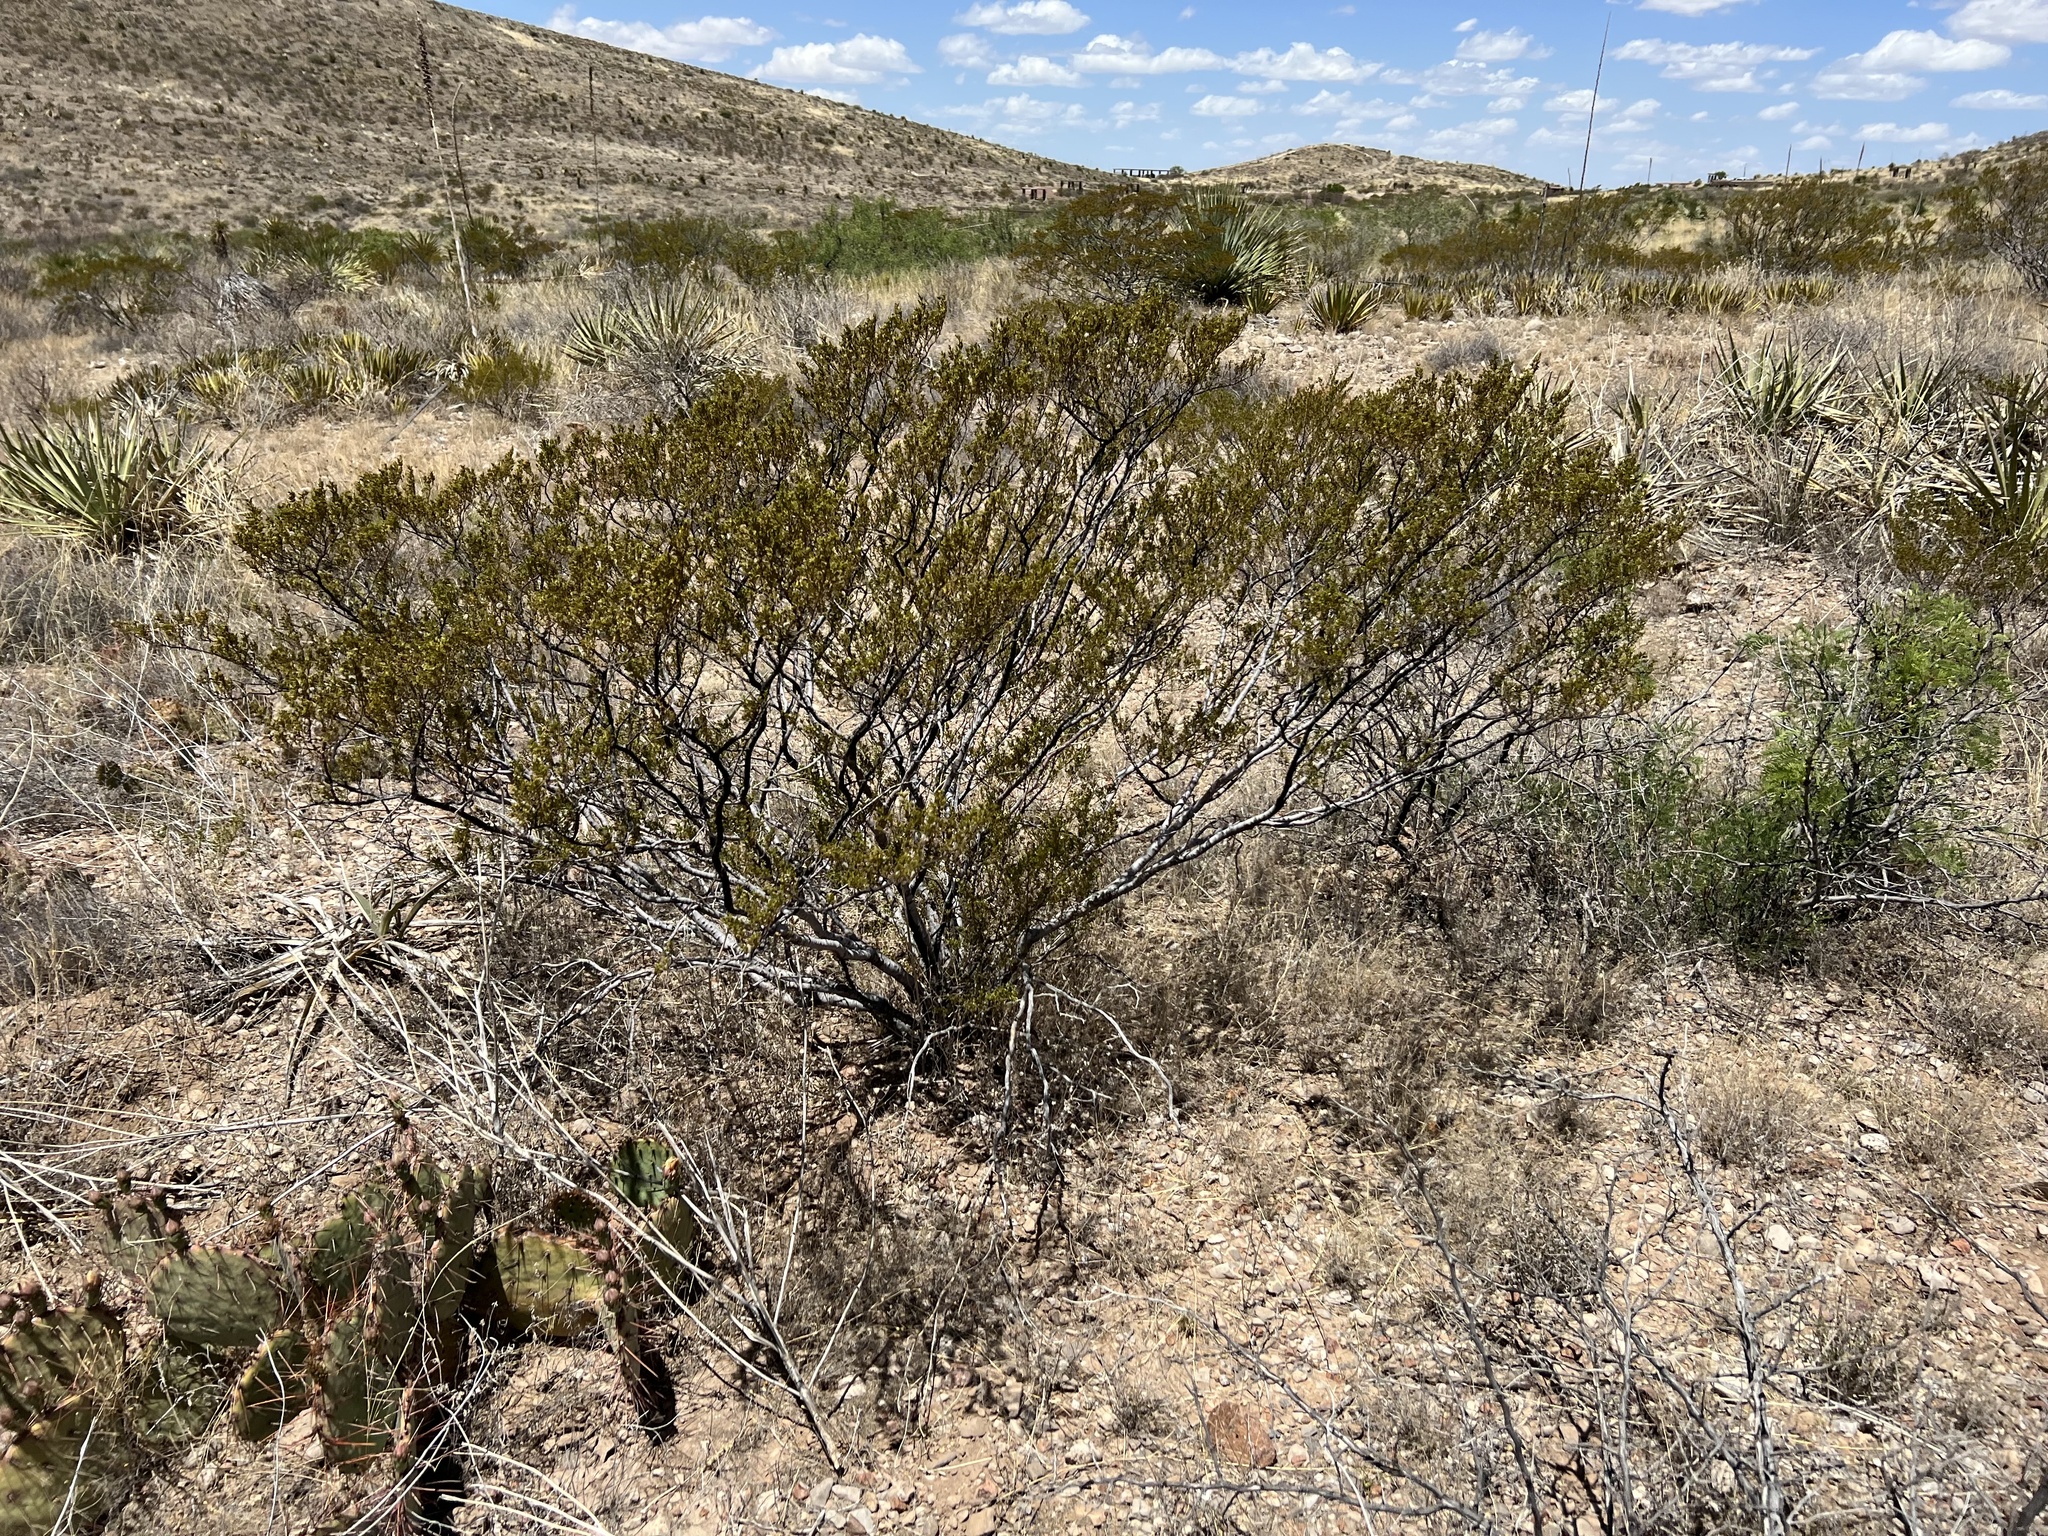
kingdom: Plantae
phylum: Tracheophyta
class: Magnoliopsida
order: Zygophyllales
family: Zygophyllaceae
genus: Larrea
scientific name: Larrea tridentata
